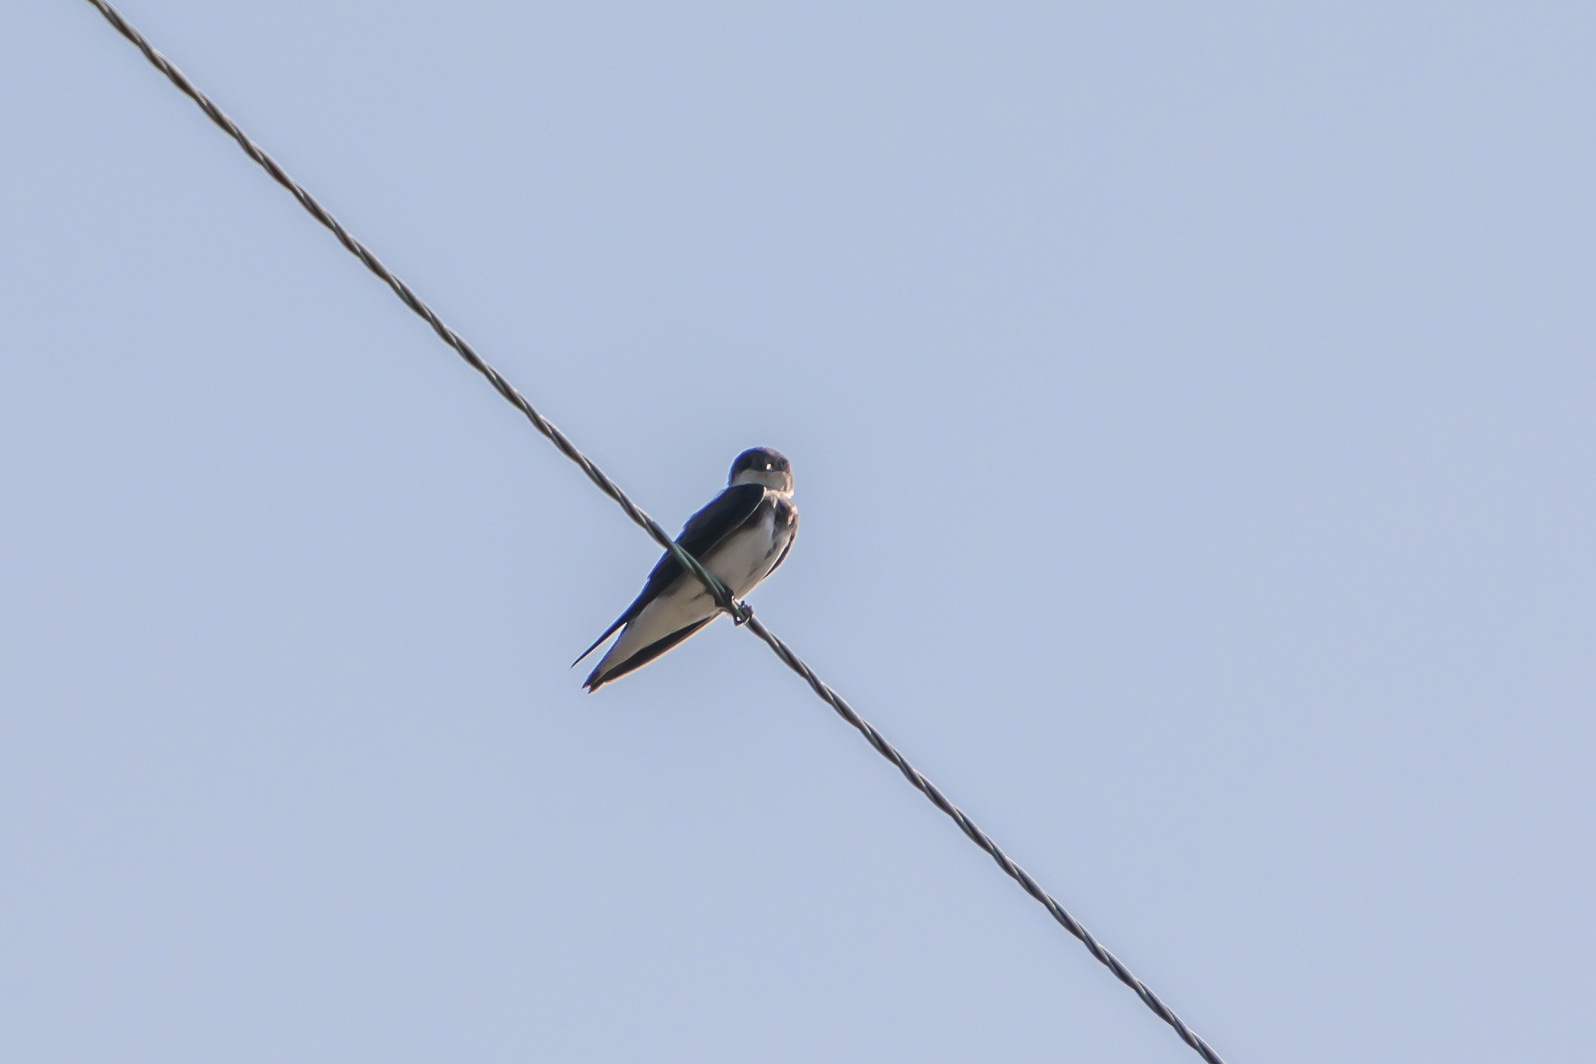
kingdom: Animalia
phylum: Chordata
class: Aves
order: Passeriformes
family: Hirundinidae
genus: Riparia
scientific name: Riparia riparia
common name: Sand martin
